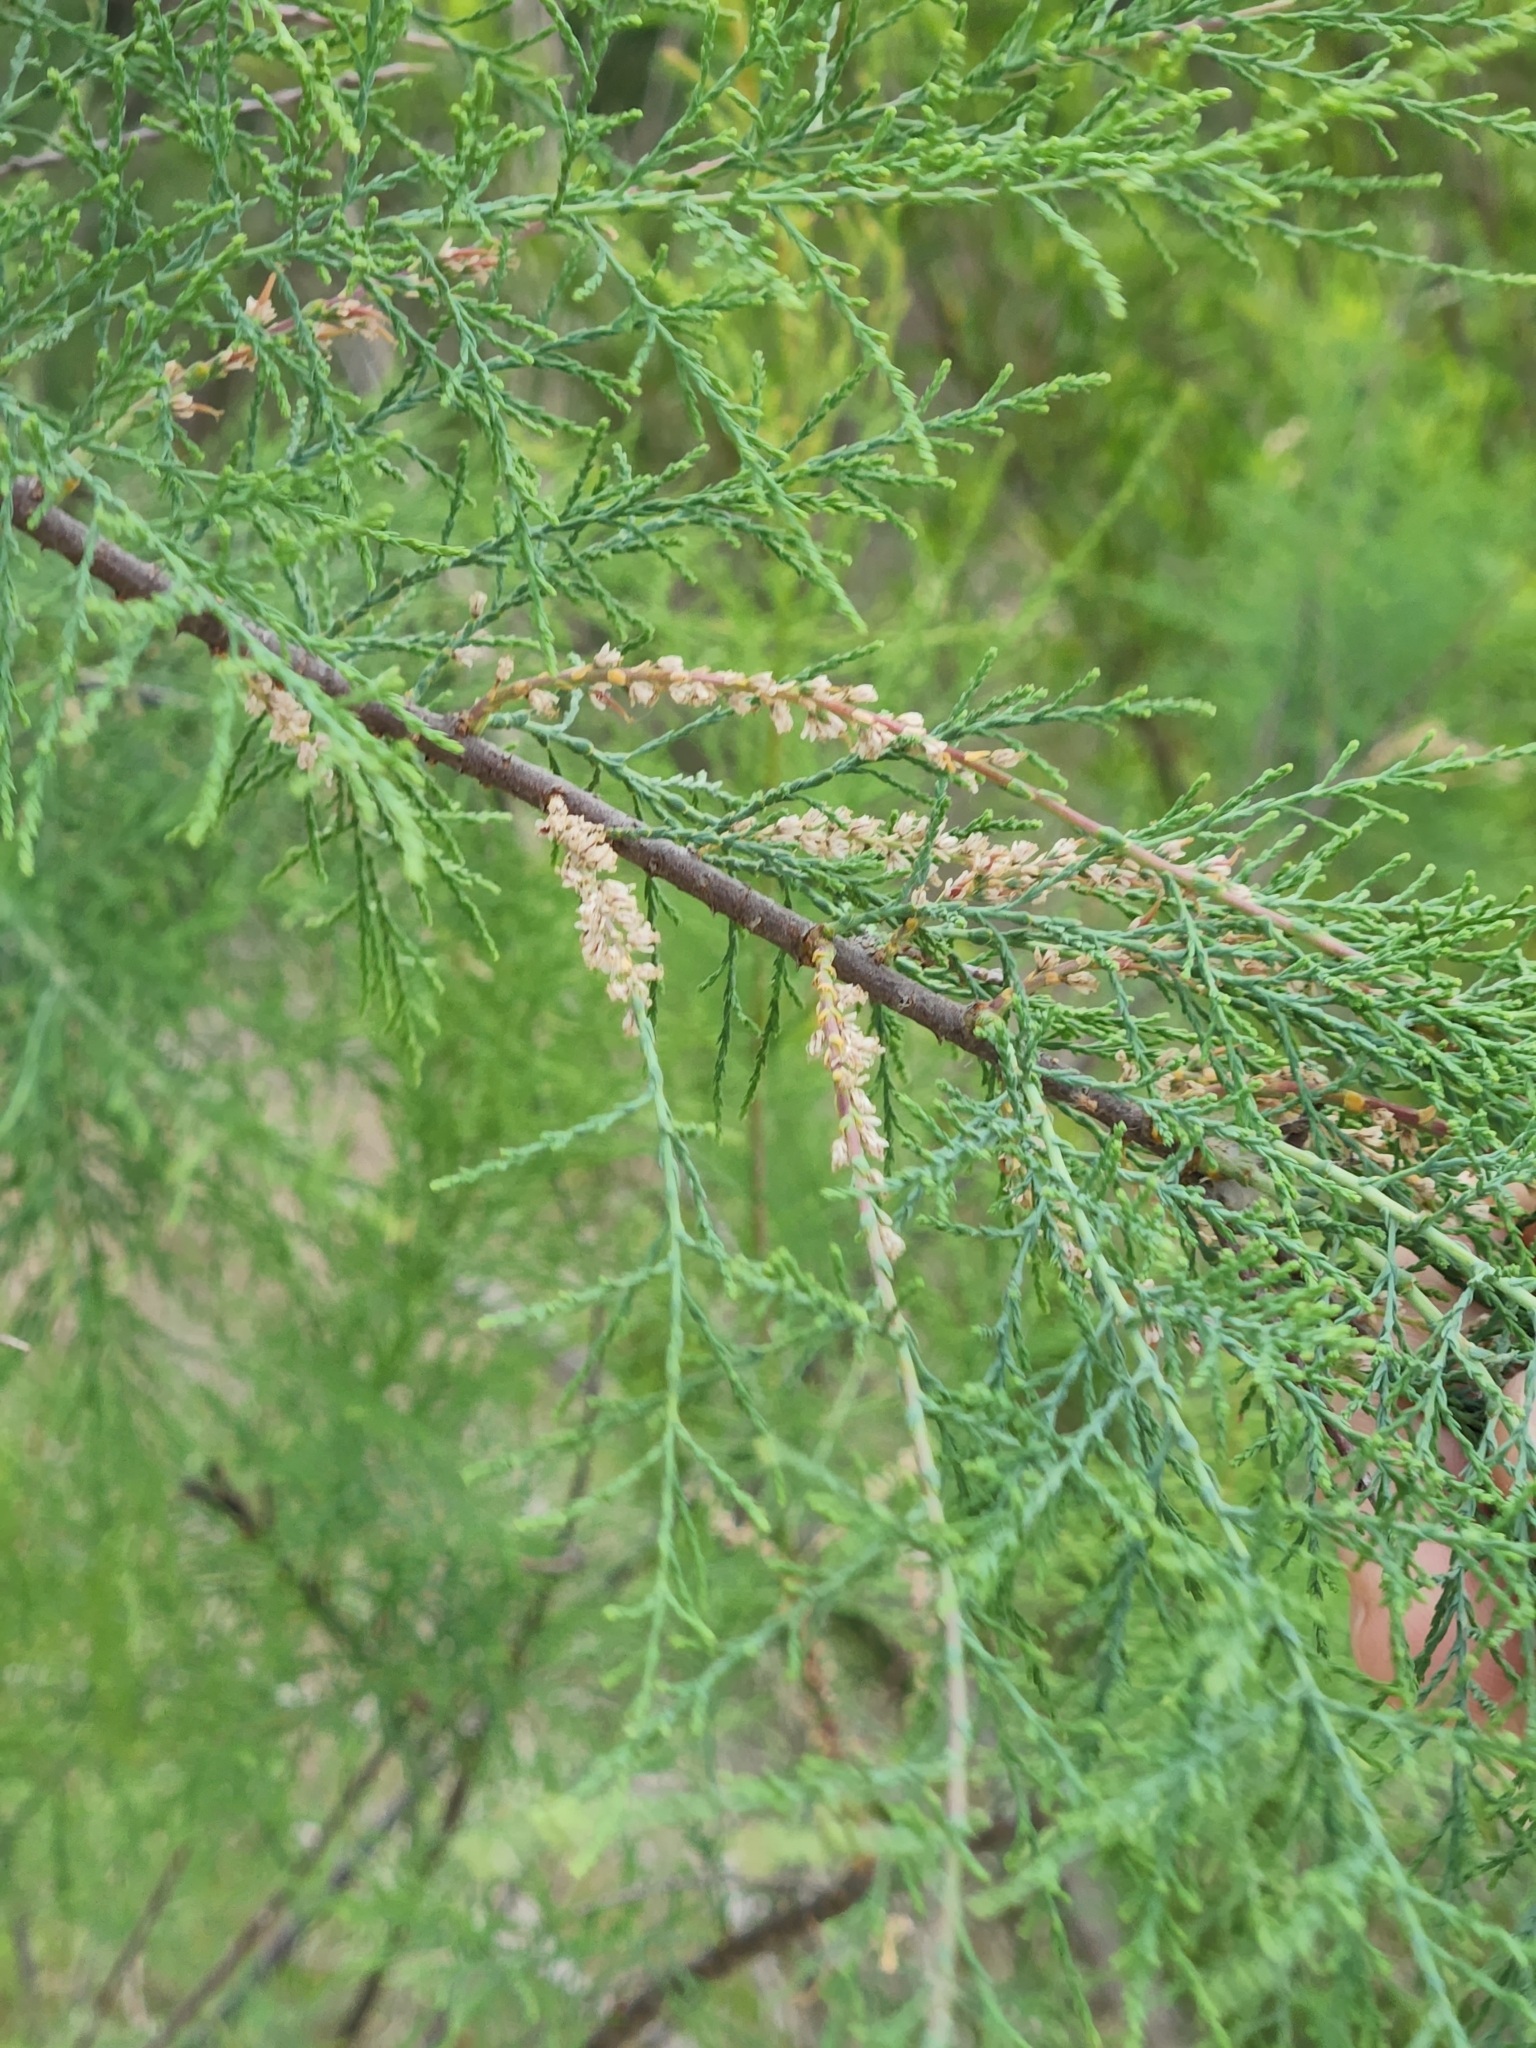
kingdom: Plantae
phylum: Tracheophyta
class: Magnoliopsida
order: Caryophyllales
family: Tamaricaceae
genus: Tamarix
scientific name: Tamarix ramosissima
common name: Pink tamarisk
